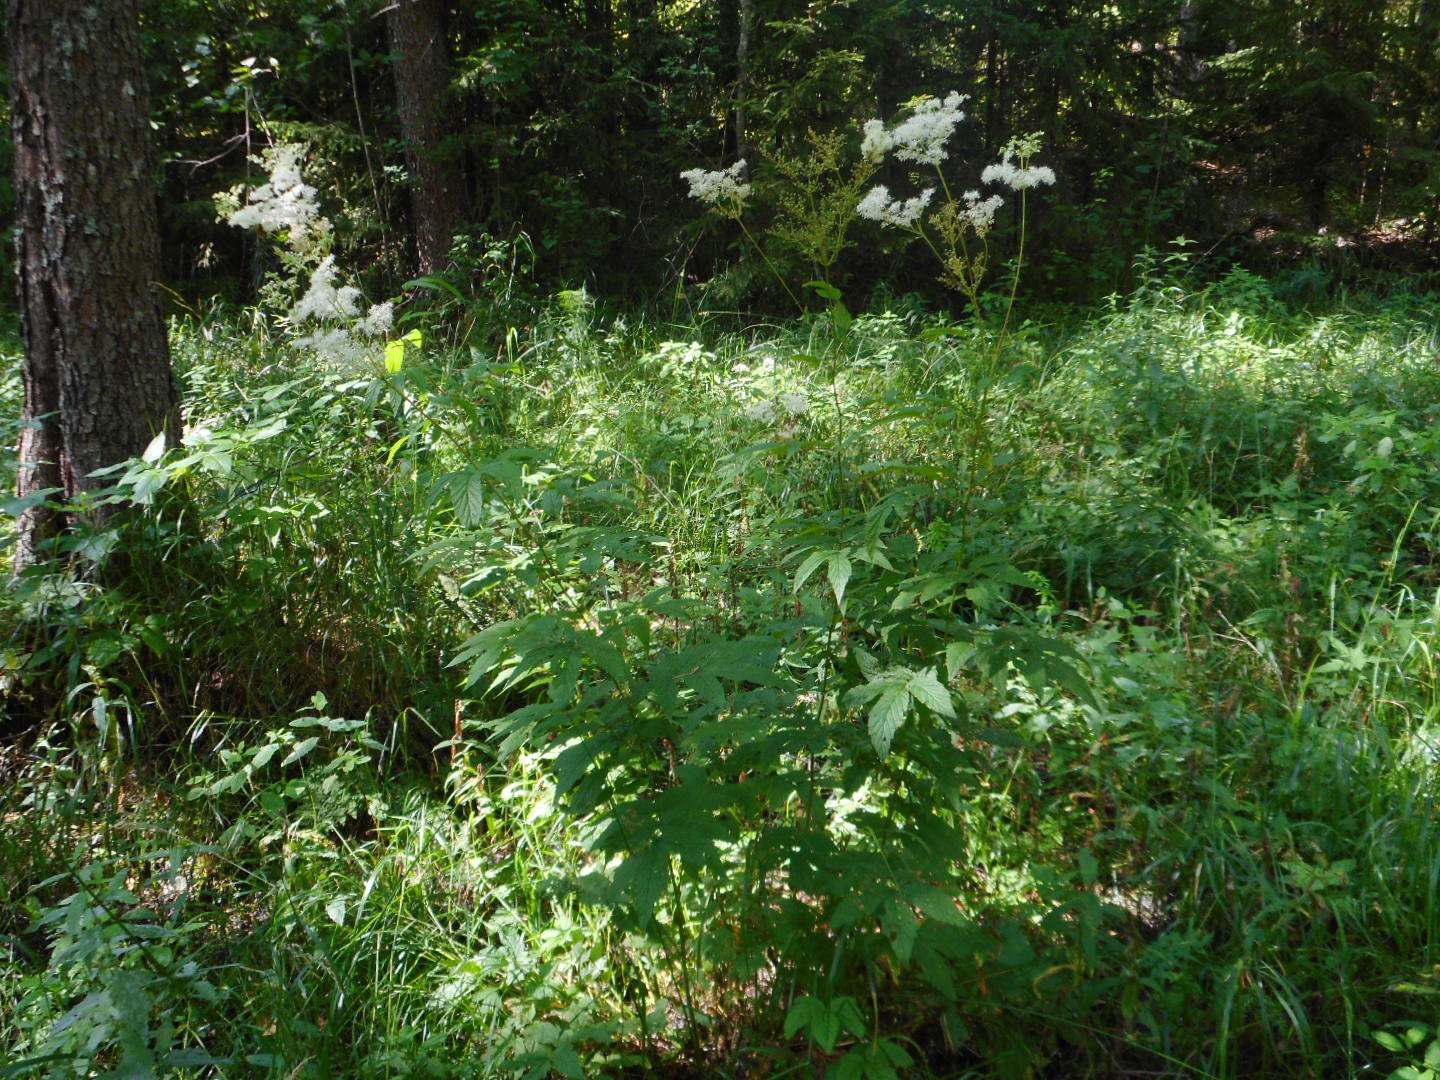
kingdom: Plantae
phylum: Tracheophyta
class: Magnoliopsida
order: Rosales
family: Rosaceae
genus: Filipendula
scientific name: Filipendula ulmaria
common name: Meadowsweet
